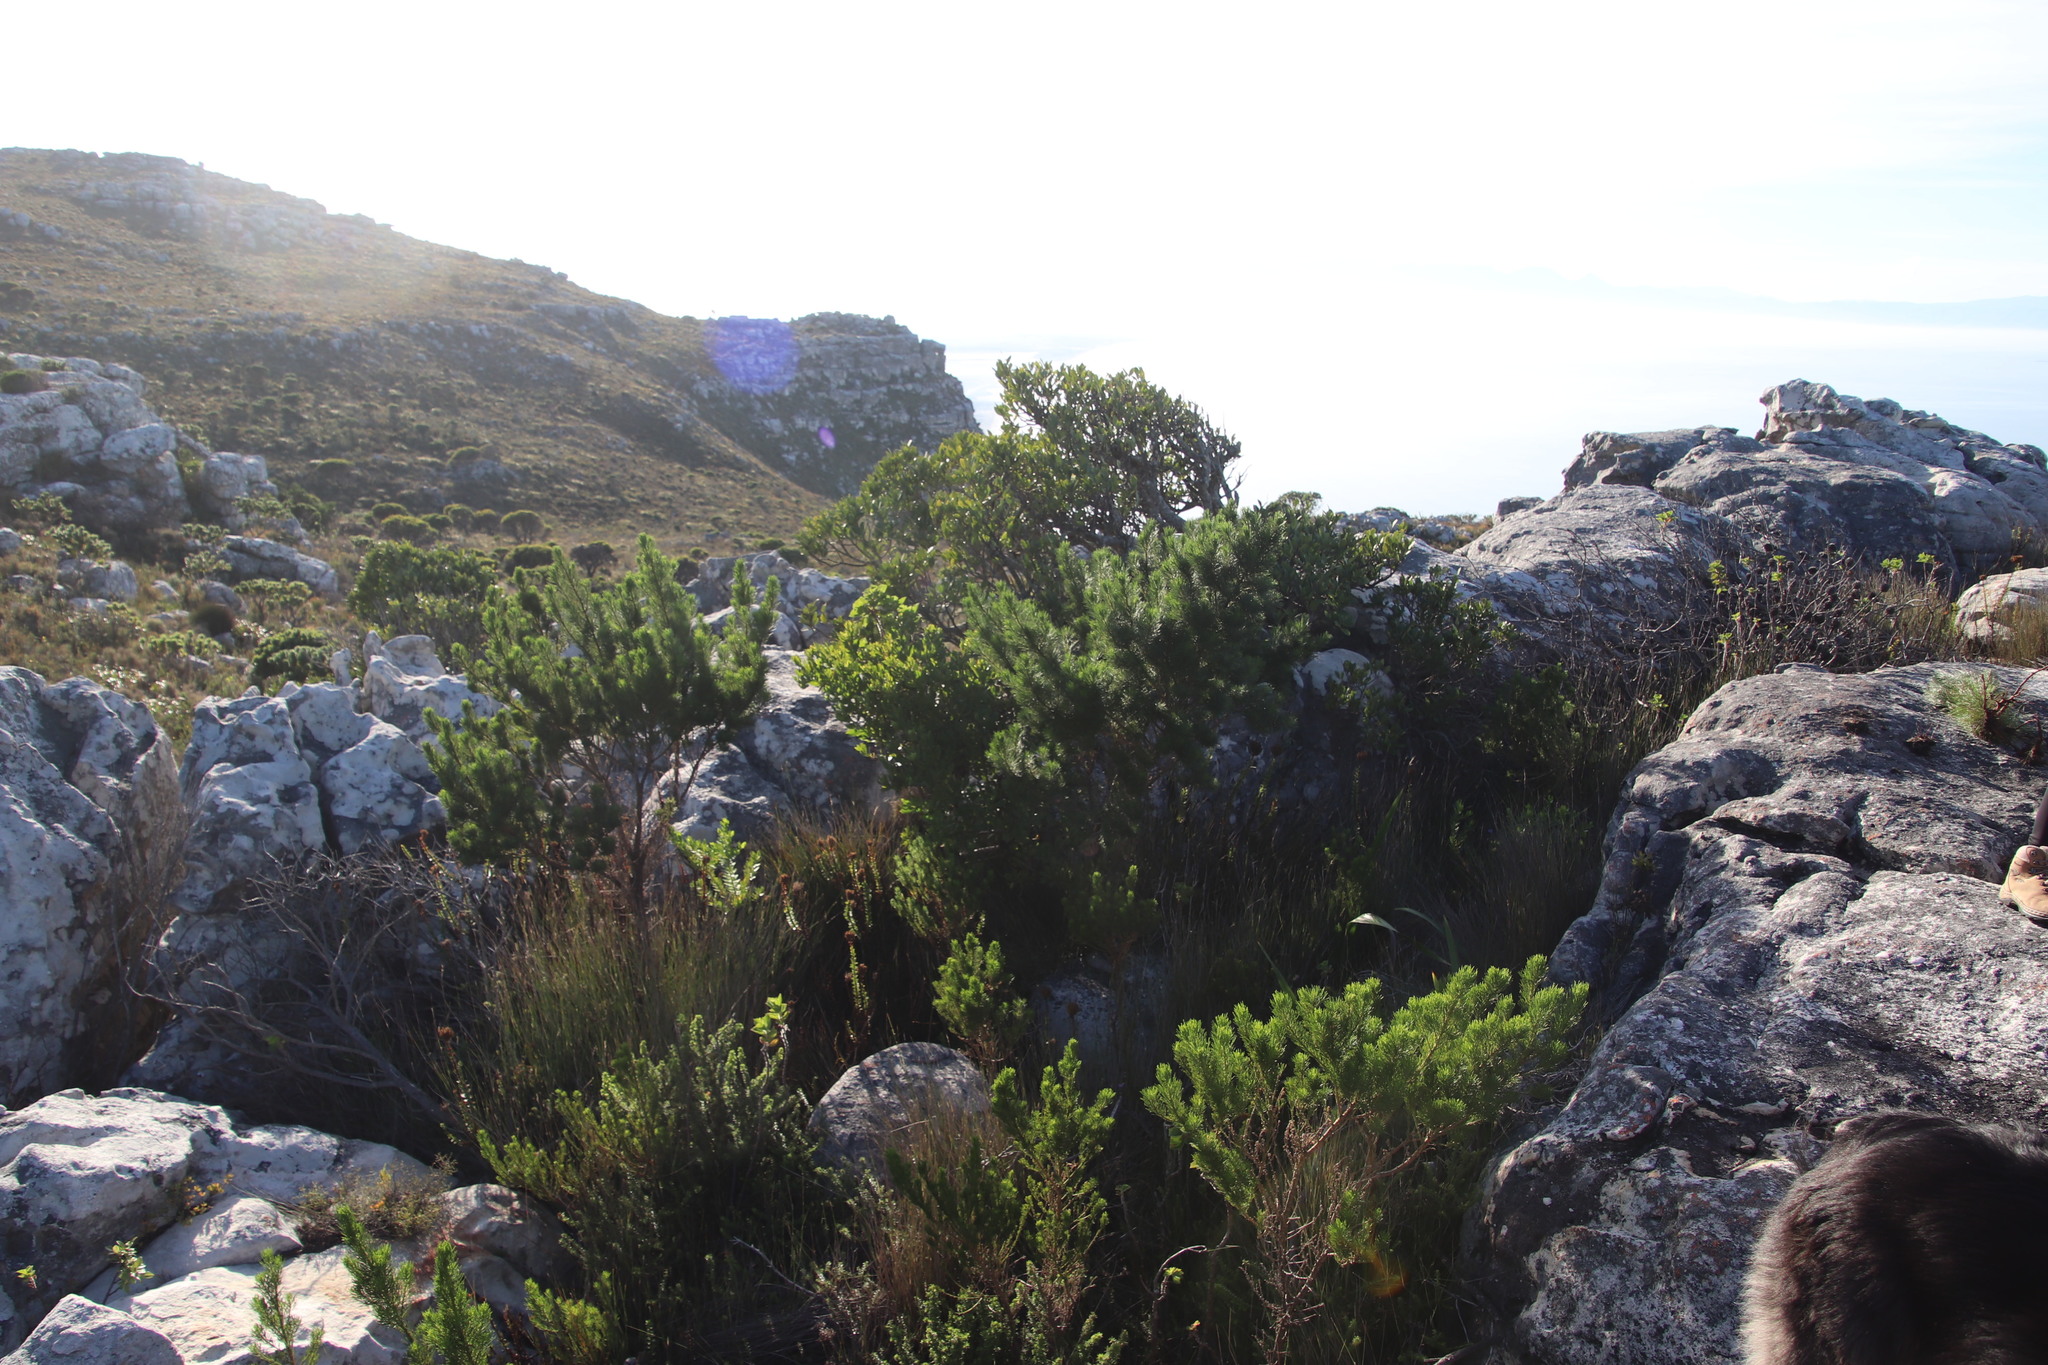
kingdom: Plantae
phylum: Tracheophyta
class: Magnoliopsida
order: Fabales
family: Fabaceae
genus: Psoralea
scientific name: Psoralea pinnata
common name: African scurfpea
